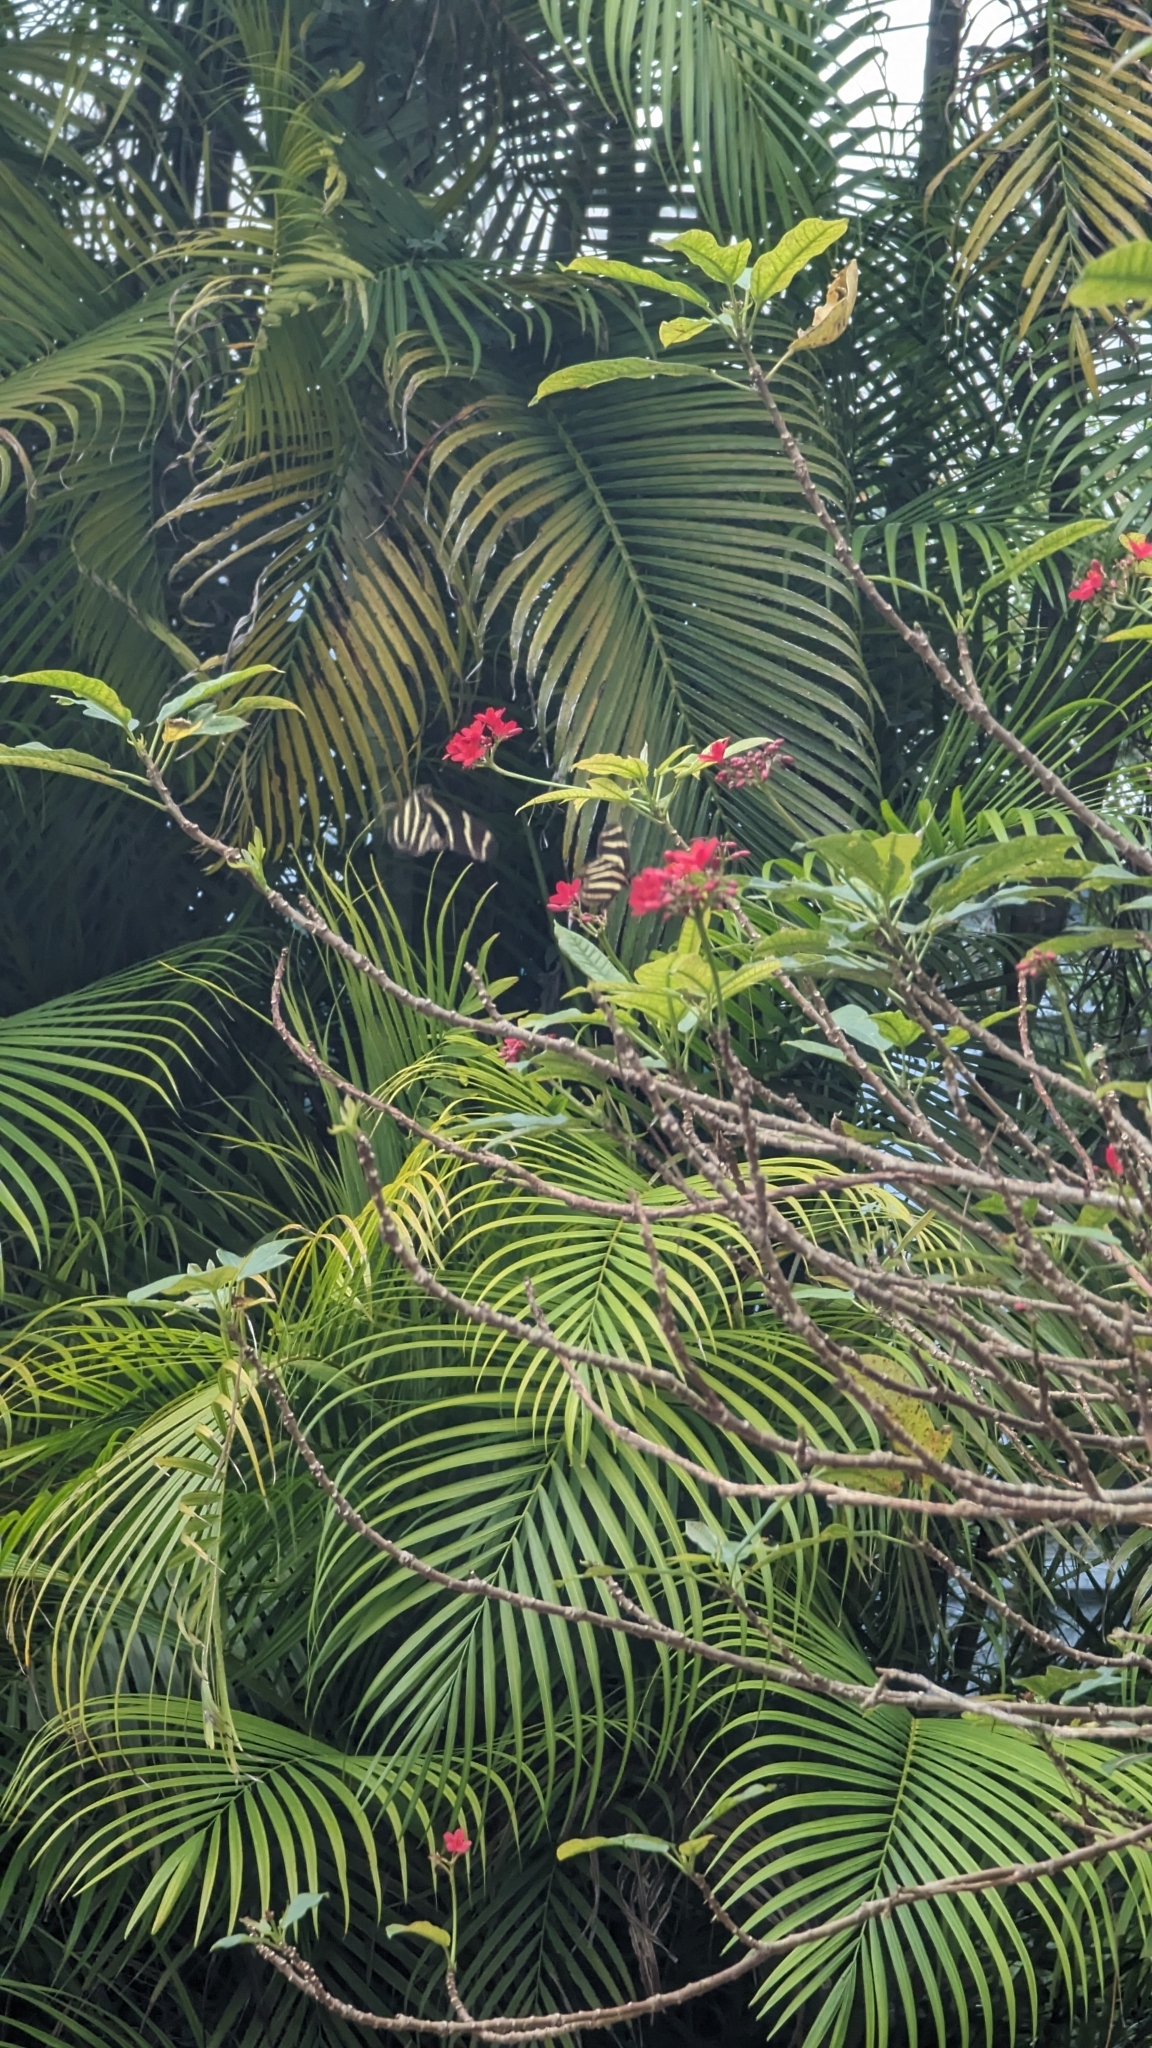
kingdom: Animalia
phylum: Arthropoda
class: Insecta
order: Lepidoptera
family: Nymphalidae
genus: Heliconius
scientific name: Heliconius charithonia
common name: Zebra long wing
